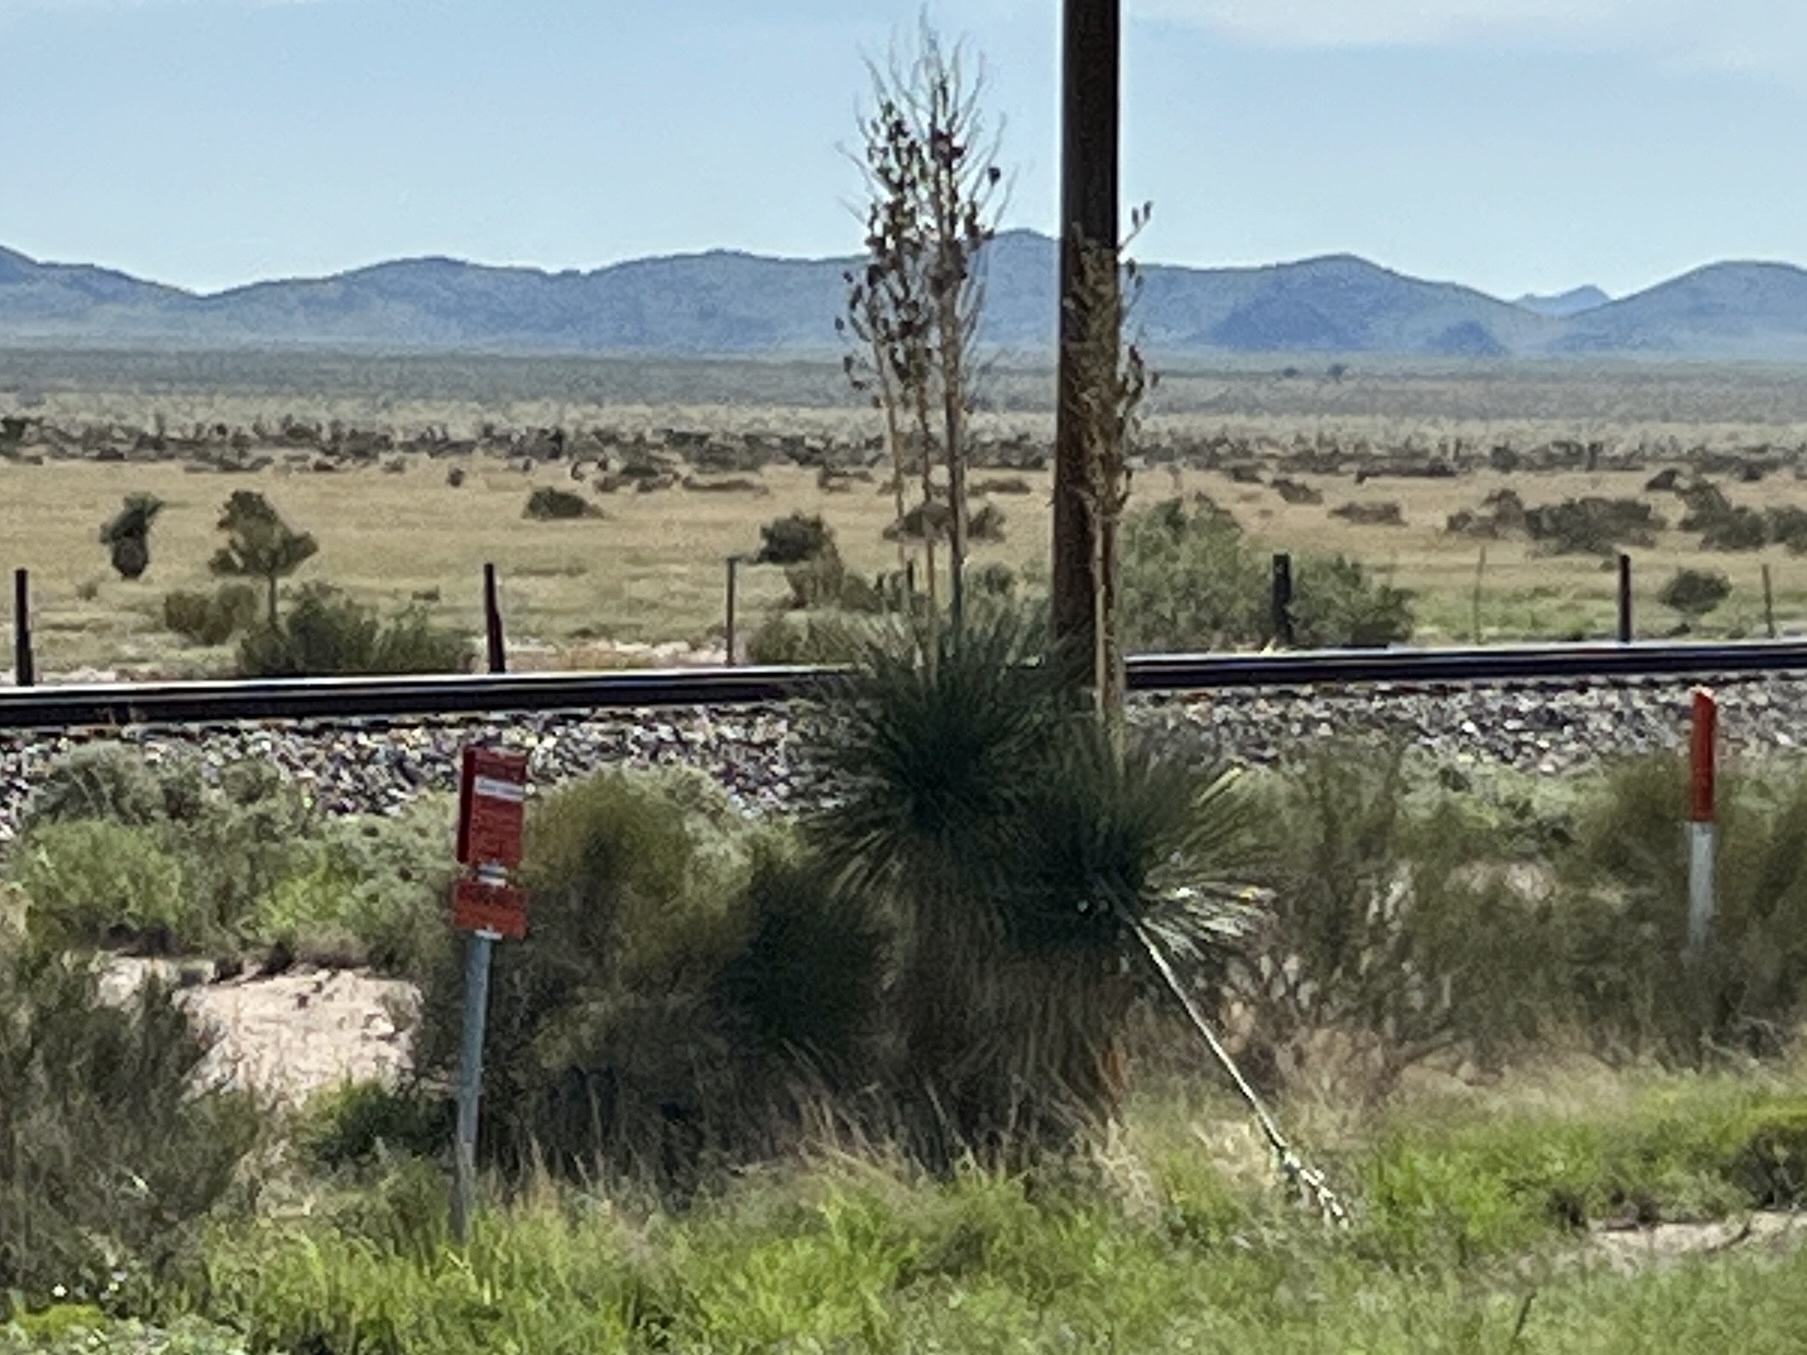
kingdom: Plantae
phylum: Tracheophyta
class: Liliopsida
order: Asparagales
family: Asparagaceae
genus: Yucca
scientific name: Yucca elata
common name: Palmella
